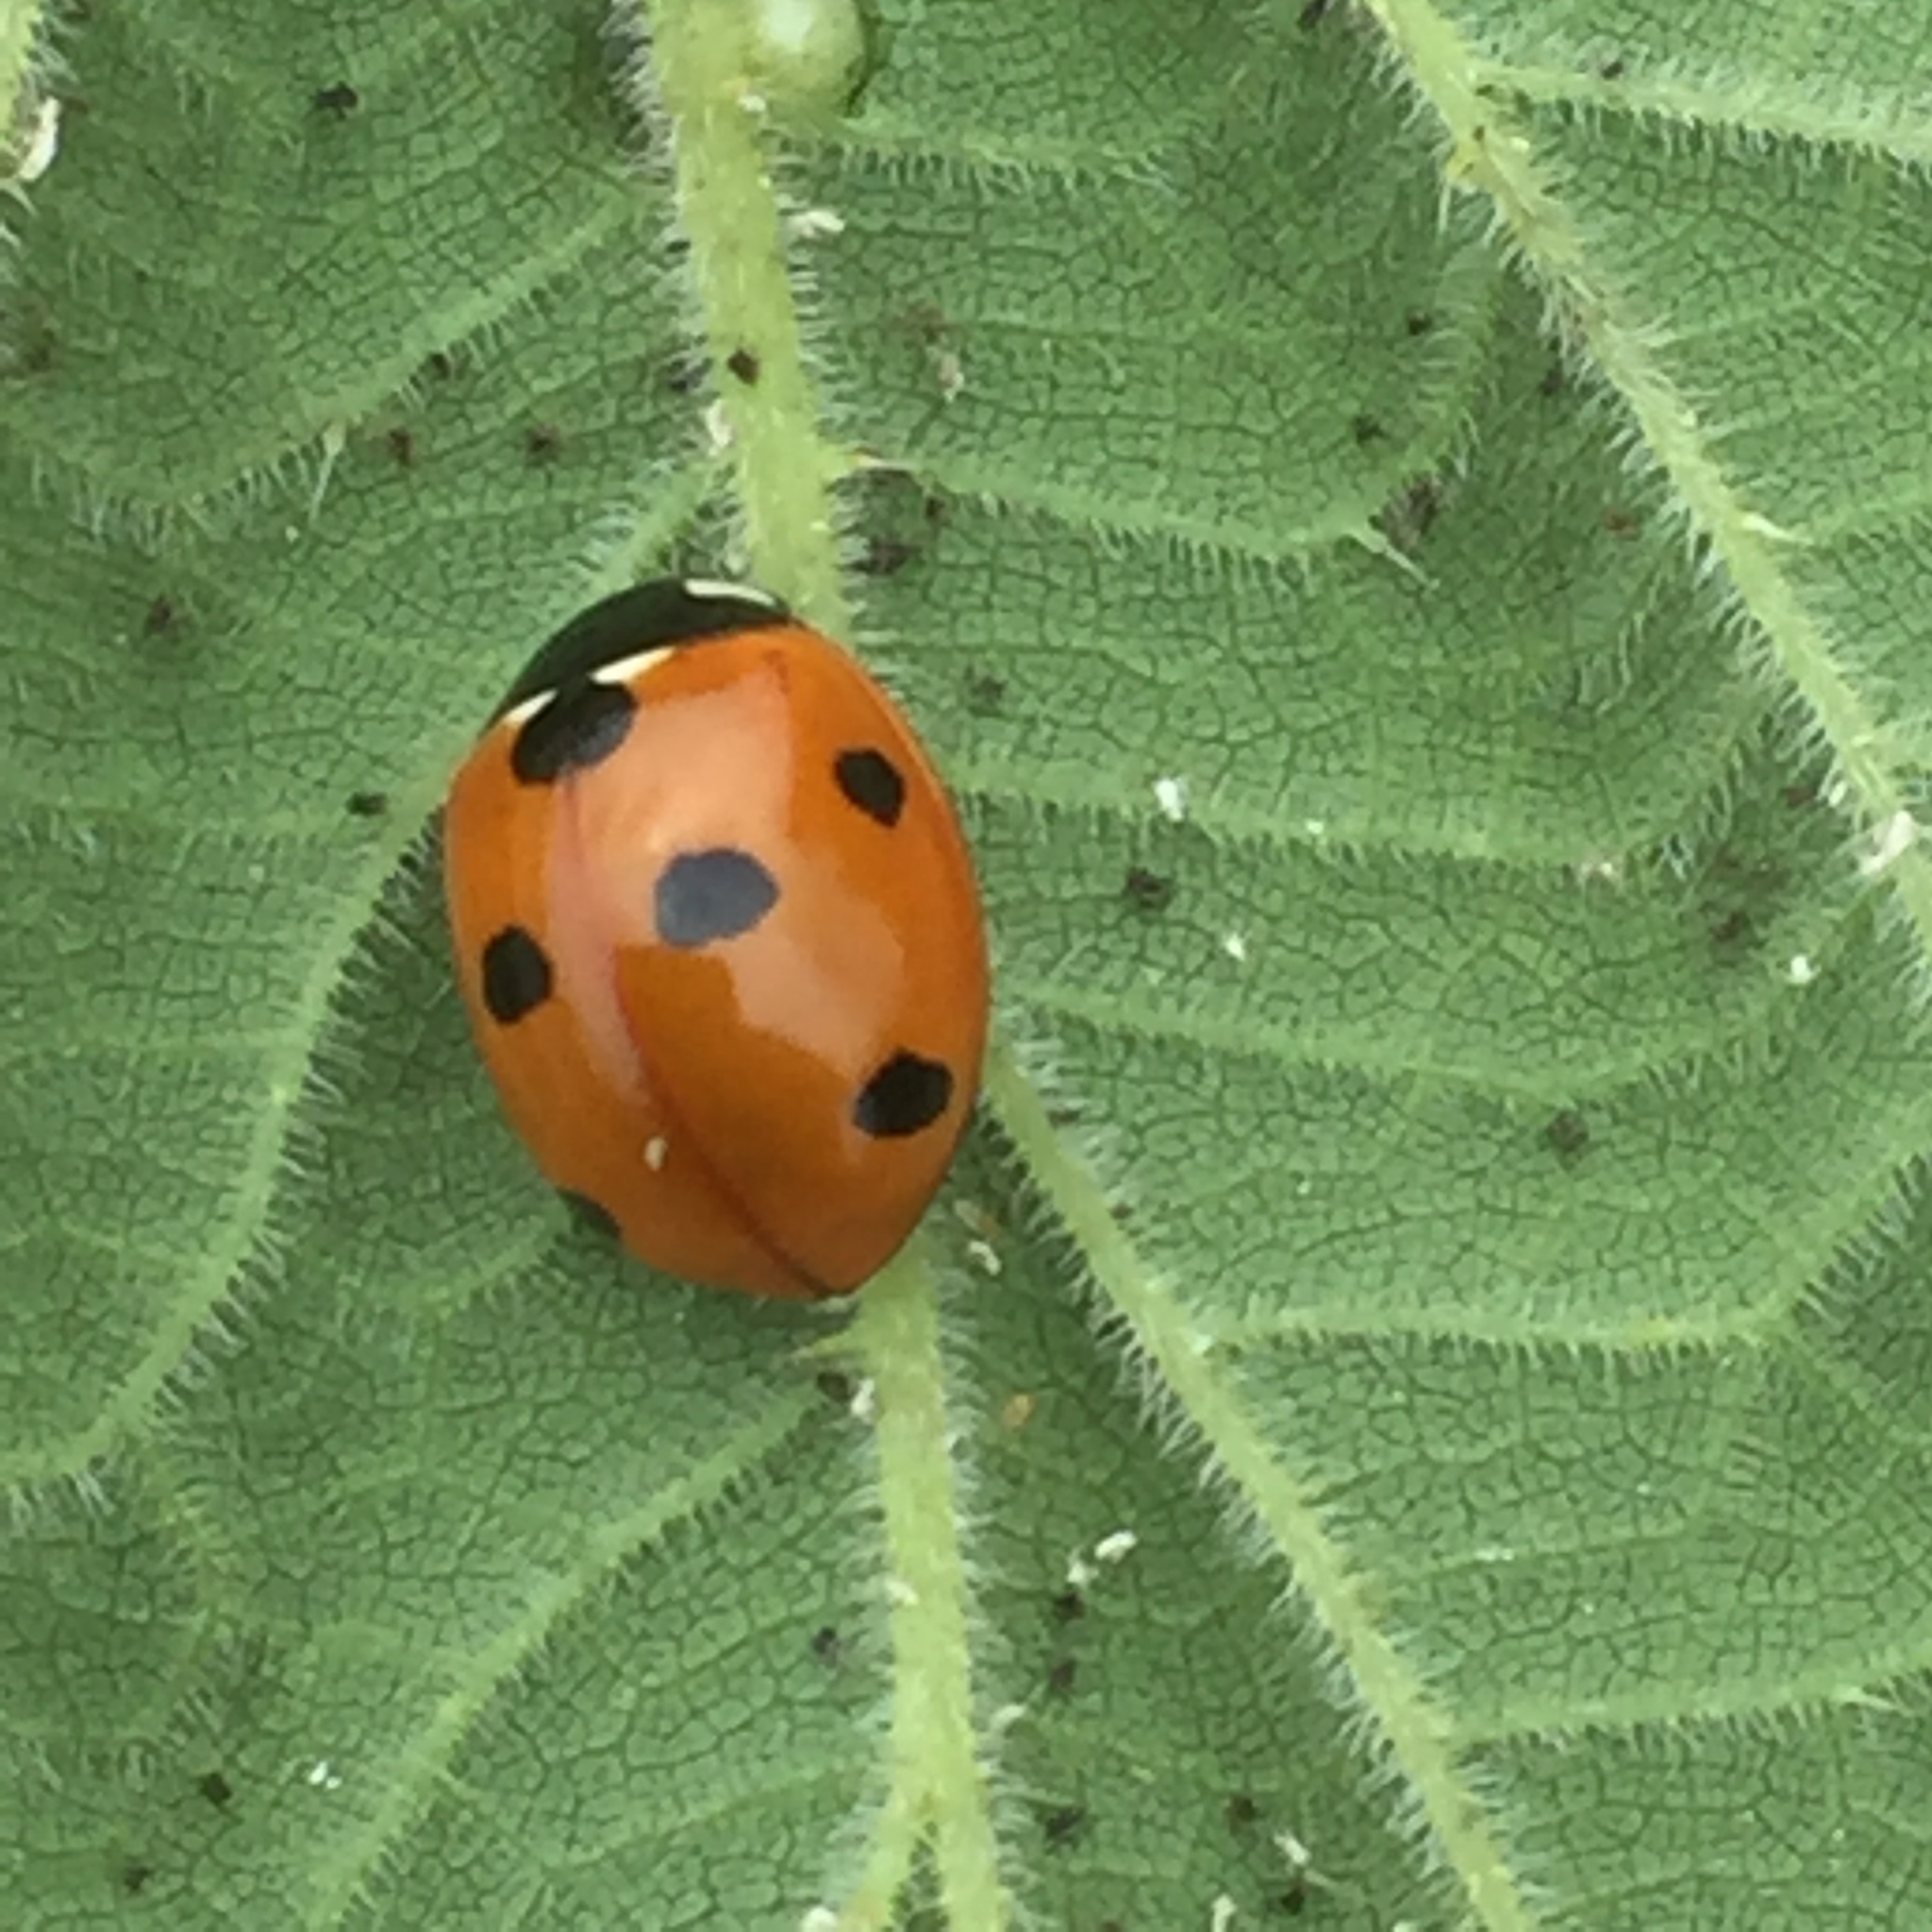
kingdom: Animalia
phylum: Arthropoda
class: Insecta
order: Coleoptera
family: Coccinellidae
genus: Coccinella
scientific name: Coccinella septempunctata
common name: Sevenspotted lady beetle
